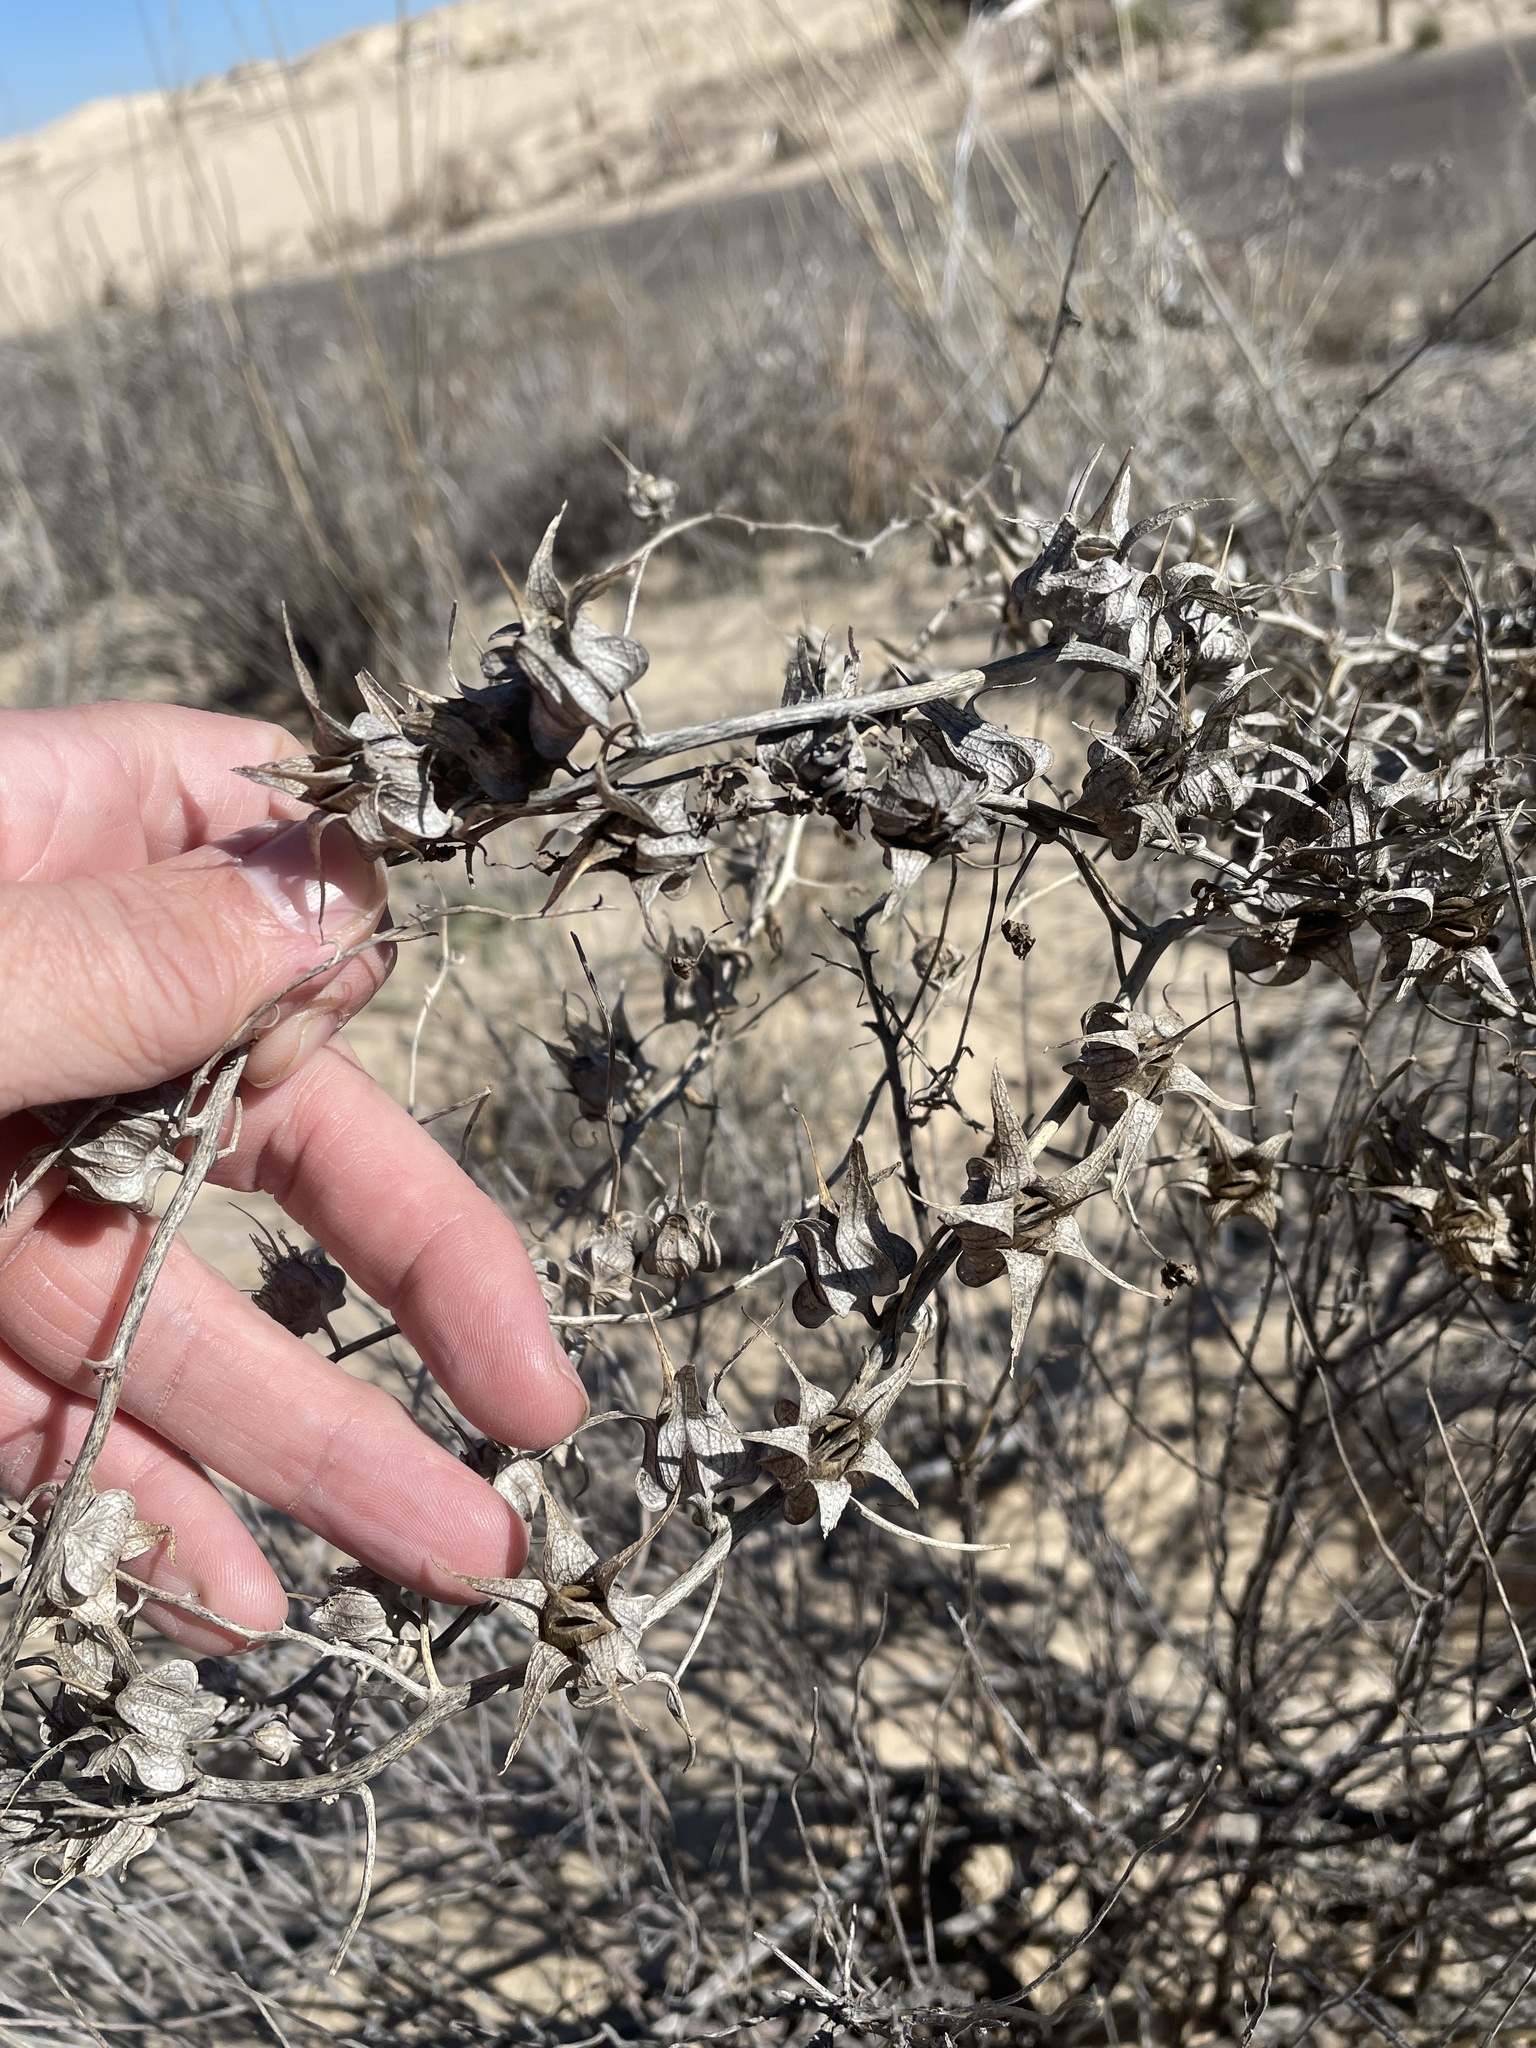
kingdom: Plantae
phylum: Tracheophyta
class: Magnoliopsida
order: Lamiales
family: Plantaginaceae
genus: Epixiphium
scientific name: Epixiphium wislizeni
